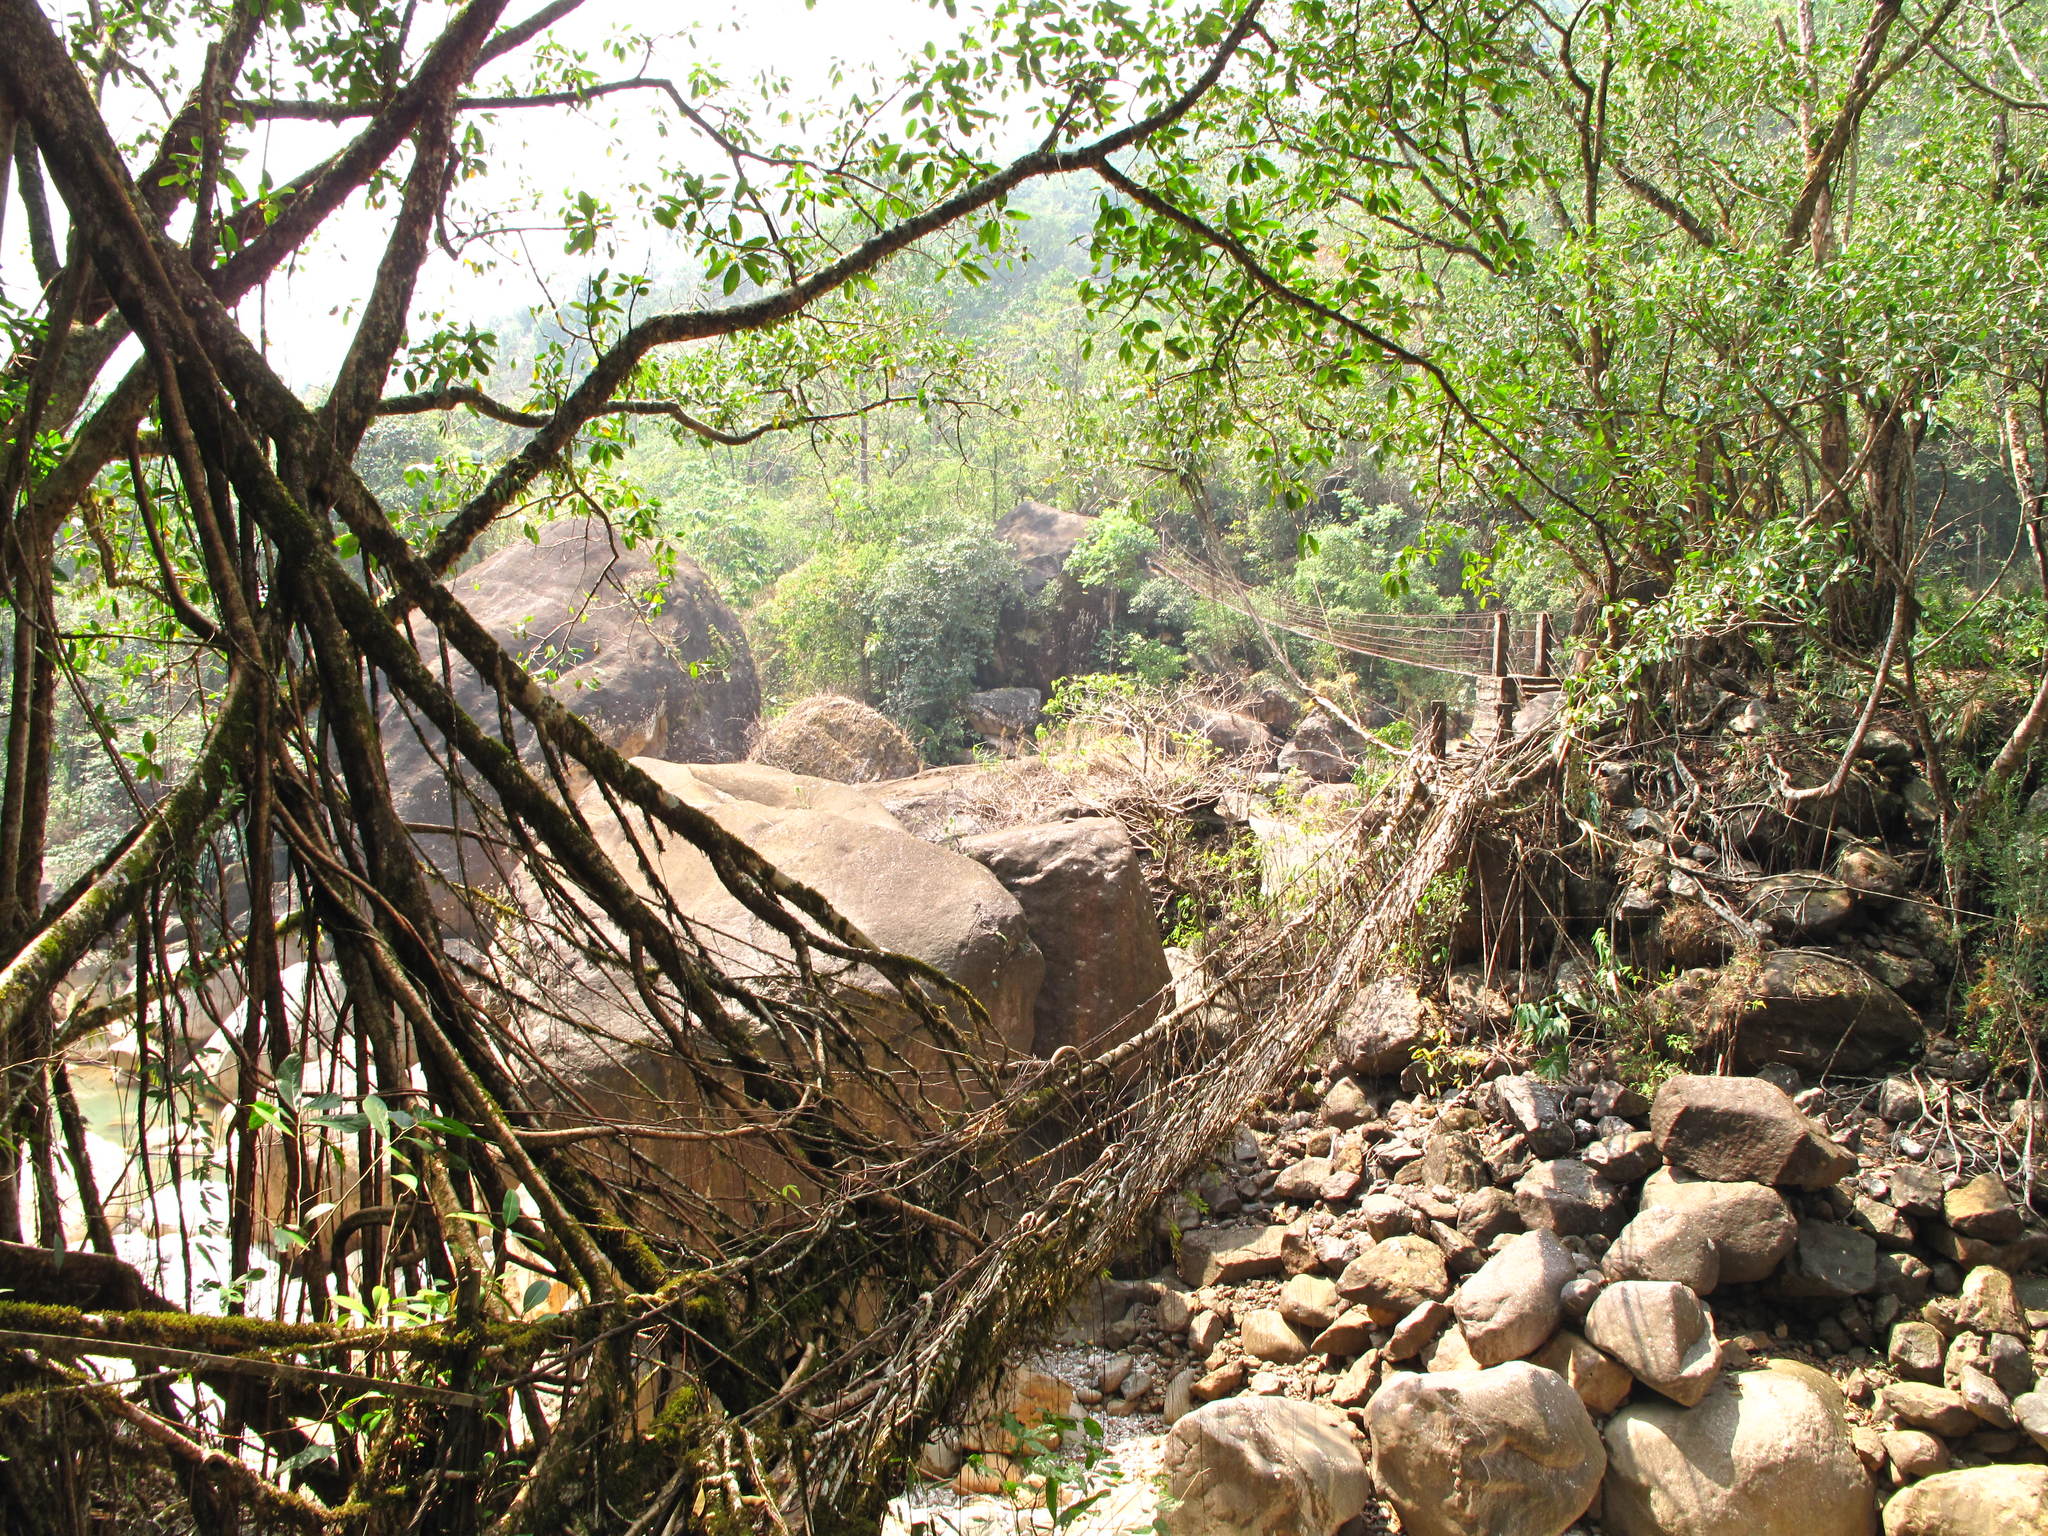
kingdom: Plantae
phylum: Tracheophyta
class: Magnoliopsida
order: Rosales
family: Moraceae
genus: Ficus
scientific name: Ficus elastica
